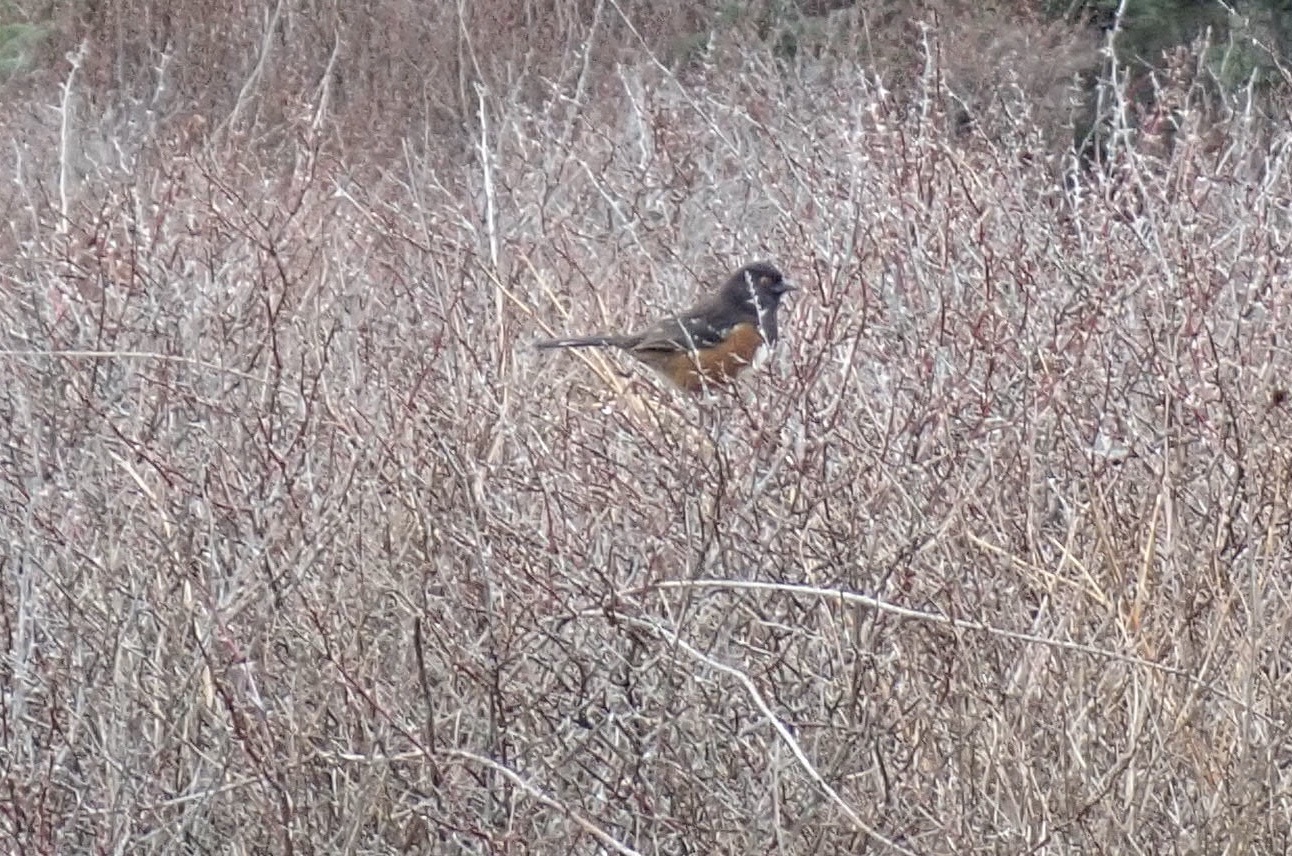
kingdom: Animalia
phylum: Chordata
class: Aves
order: Passeriformes
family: Passerellidae
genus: Pipilo
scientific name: Pipilo maculatus
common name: Spotted towhee
